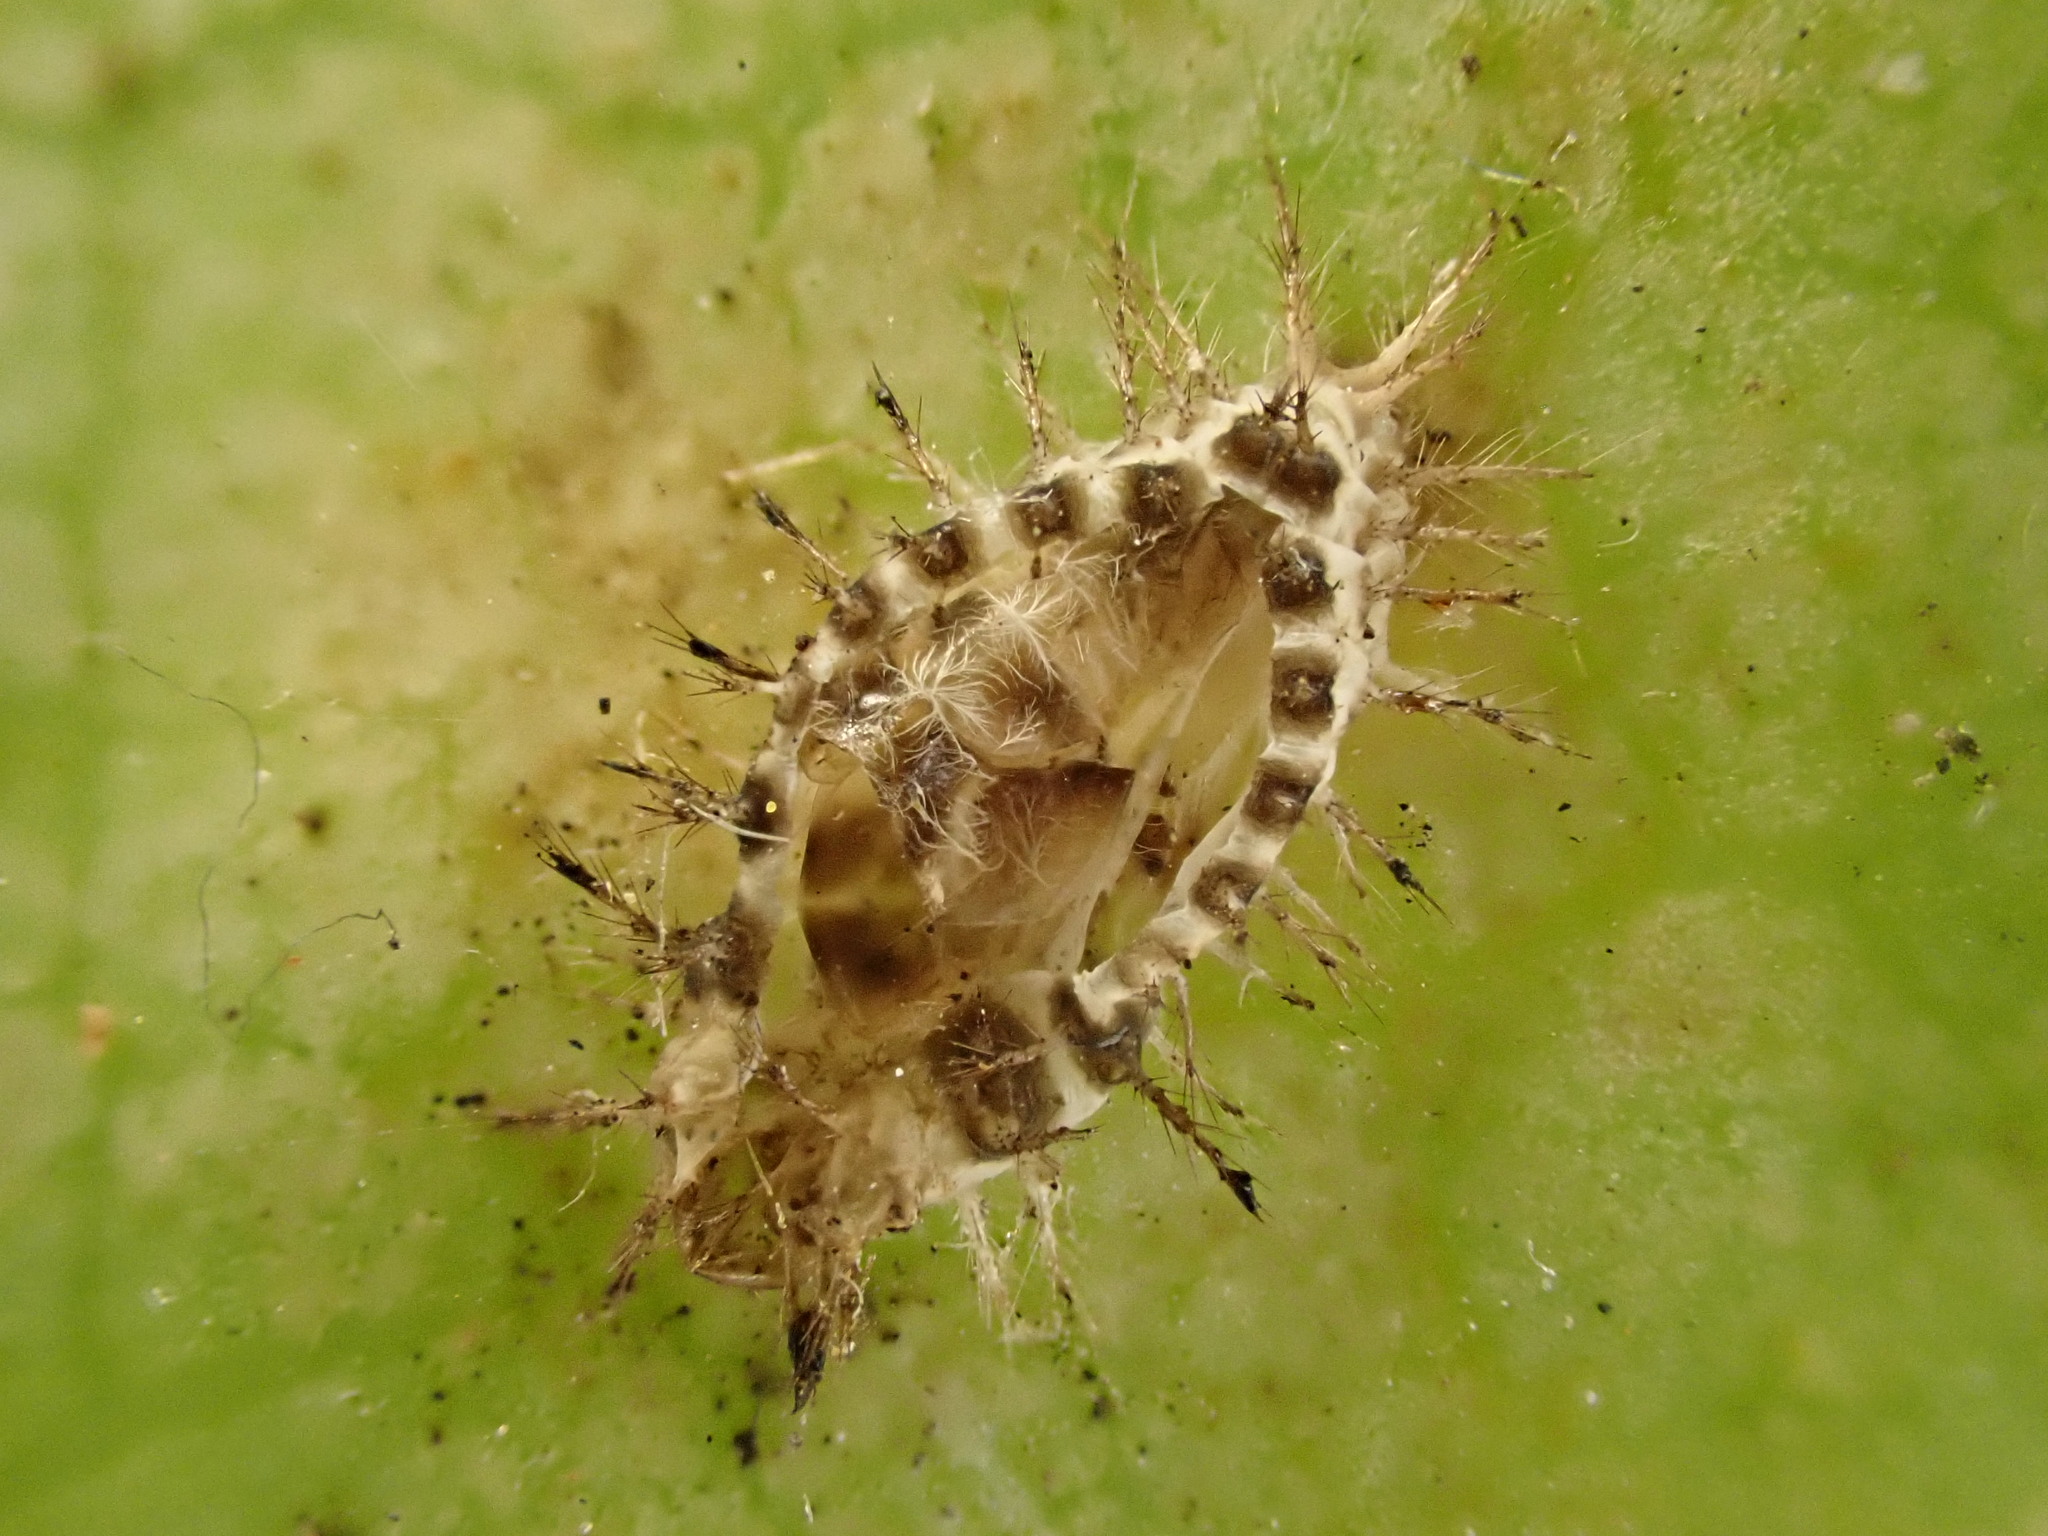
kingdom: Animalia
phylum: Arthropoda
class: Insecta
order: Coleoptera
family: Coccinellidae
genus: Halmus
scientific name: Halmus chalybeus
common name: Steel blue ladybird beetle
